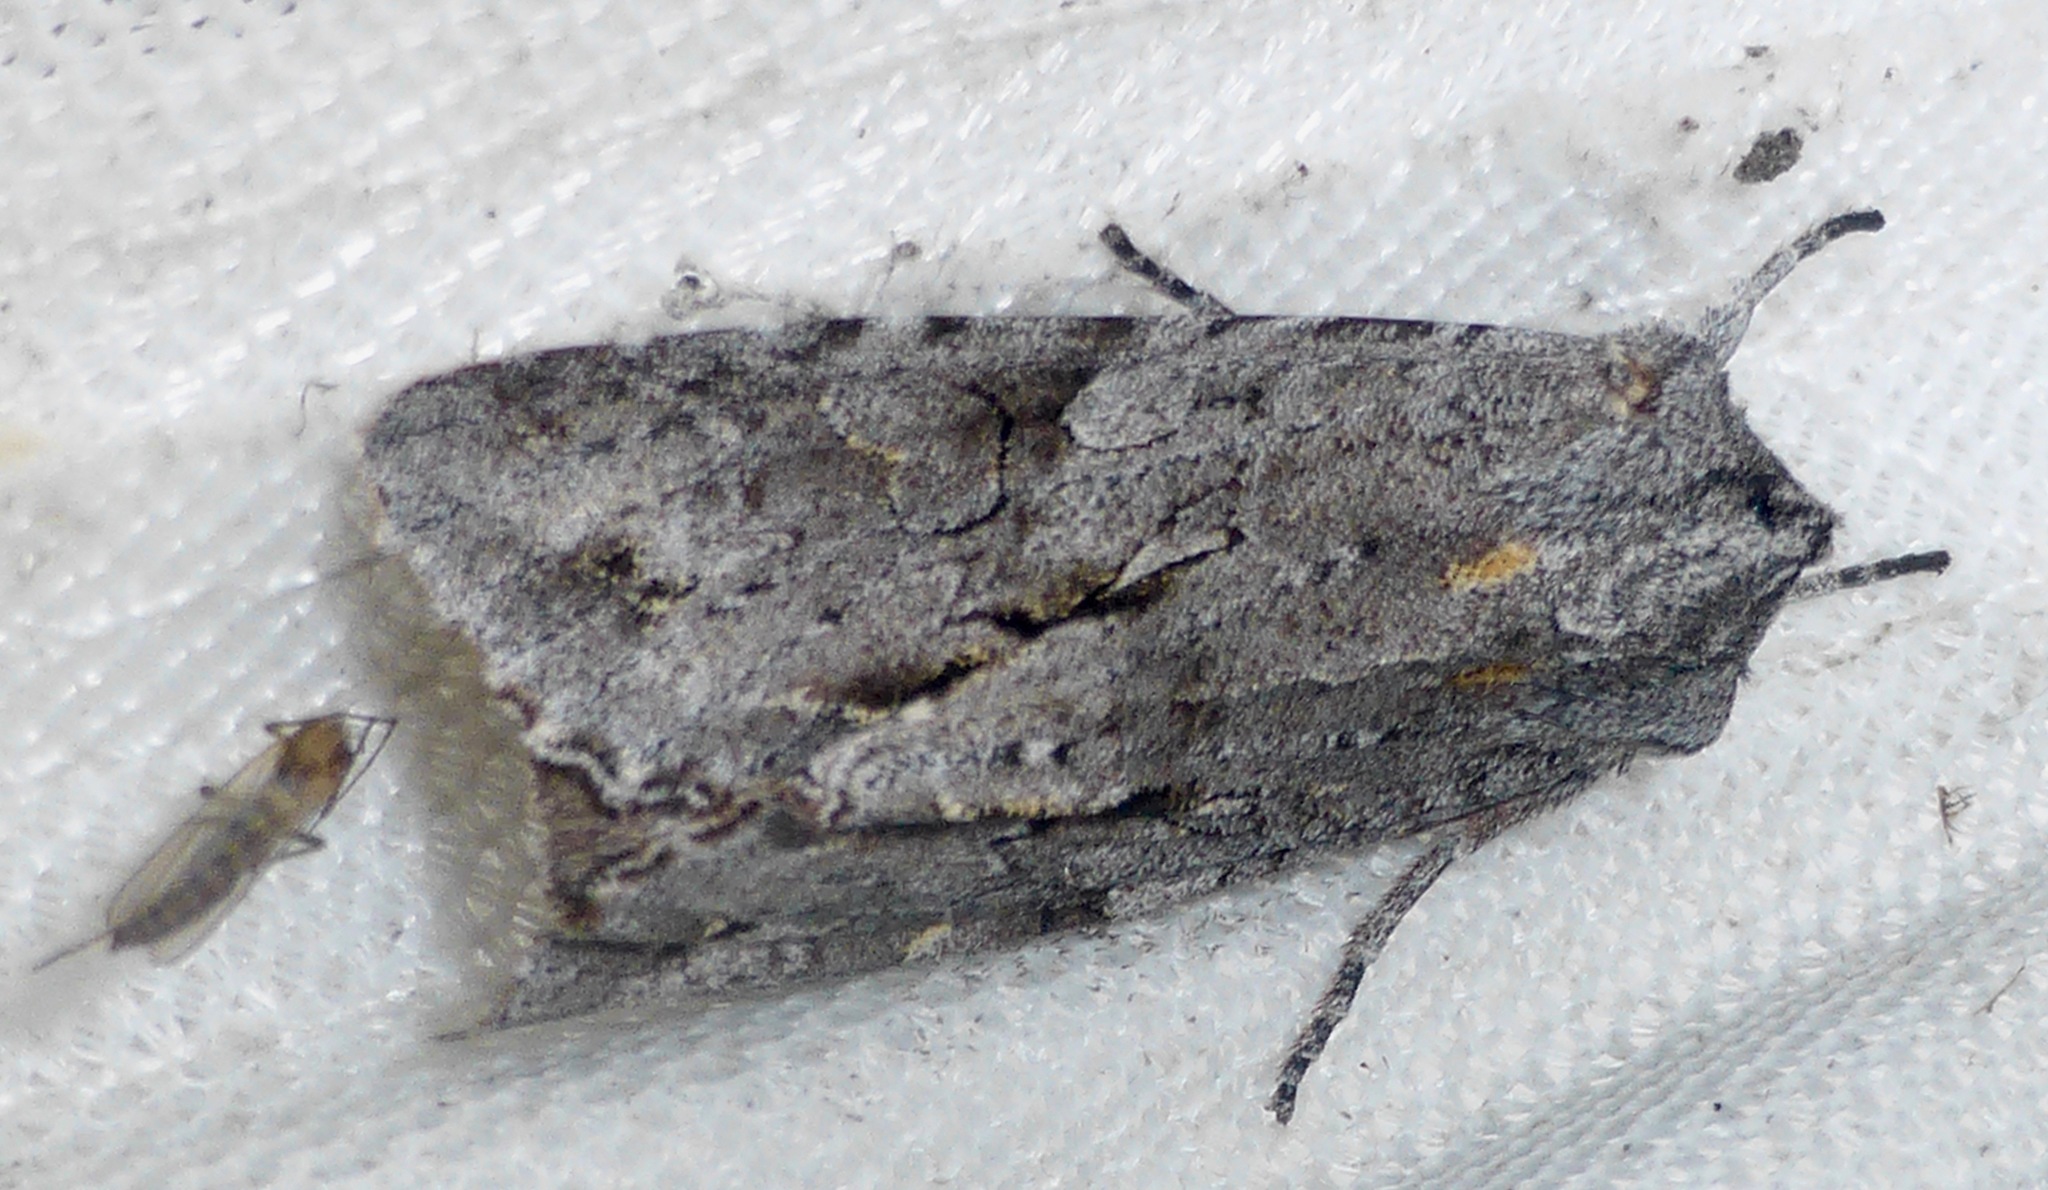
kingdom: Animalia
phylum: Arthropoda
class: Insecta
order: Lepidoptera
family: Noctuidae
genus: Ichneutica
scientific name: Ichneutica
